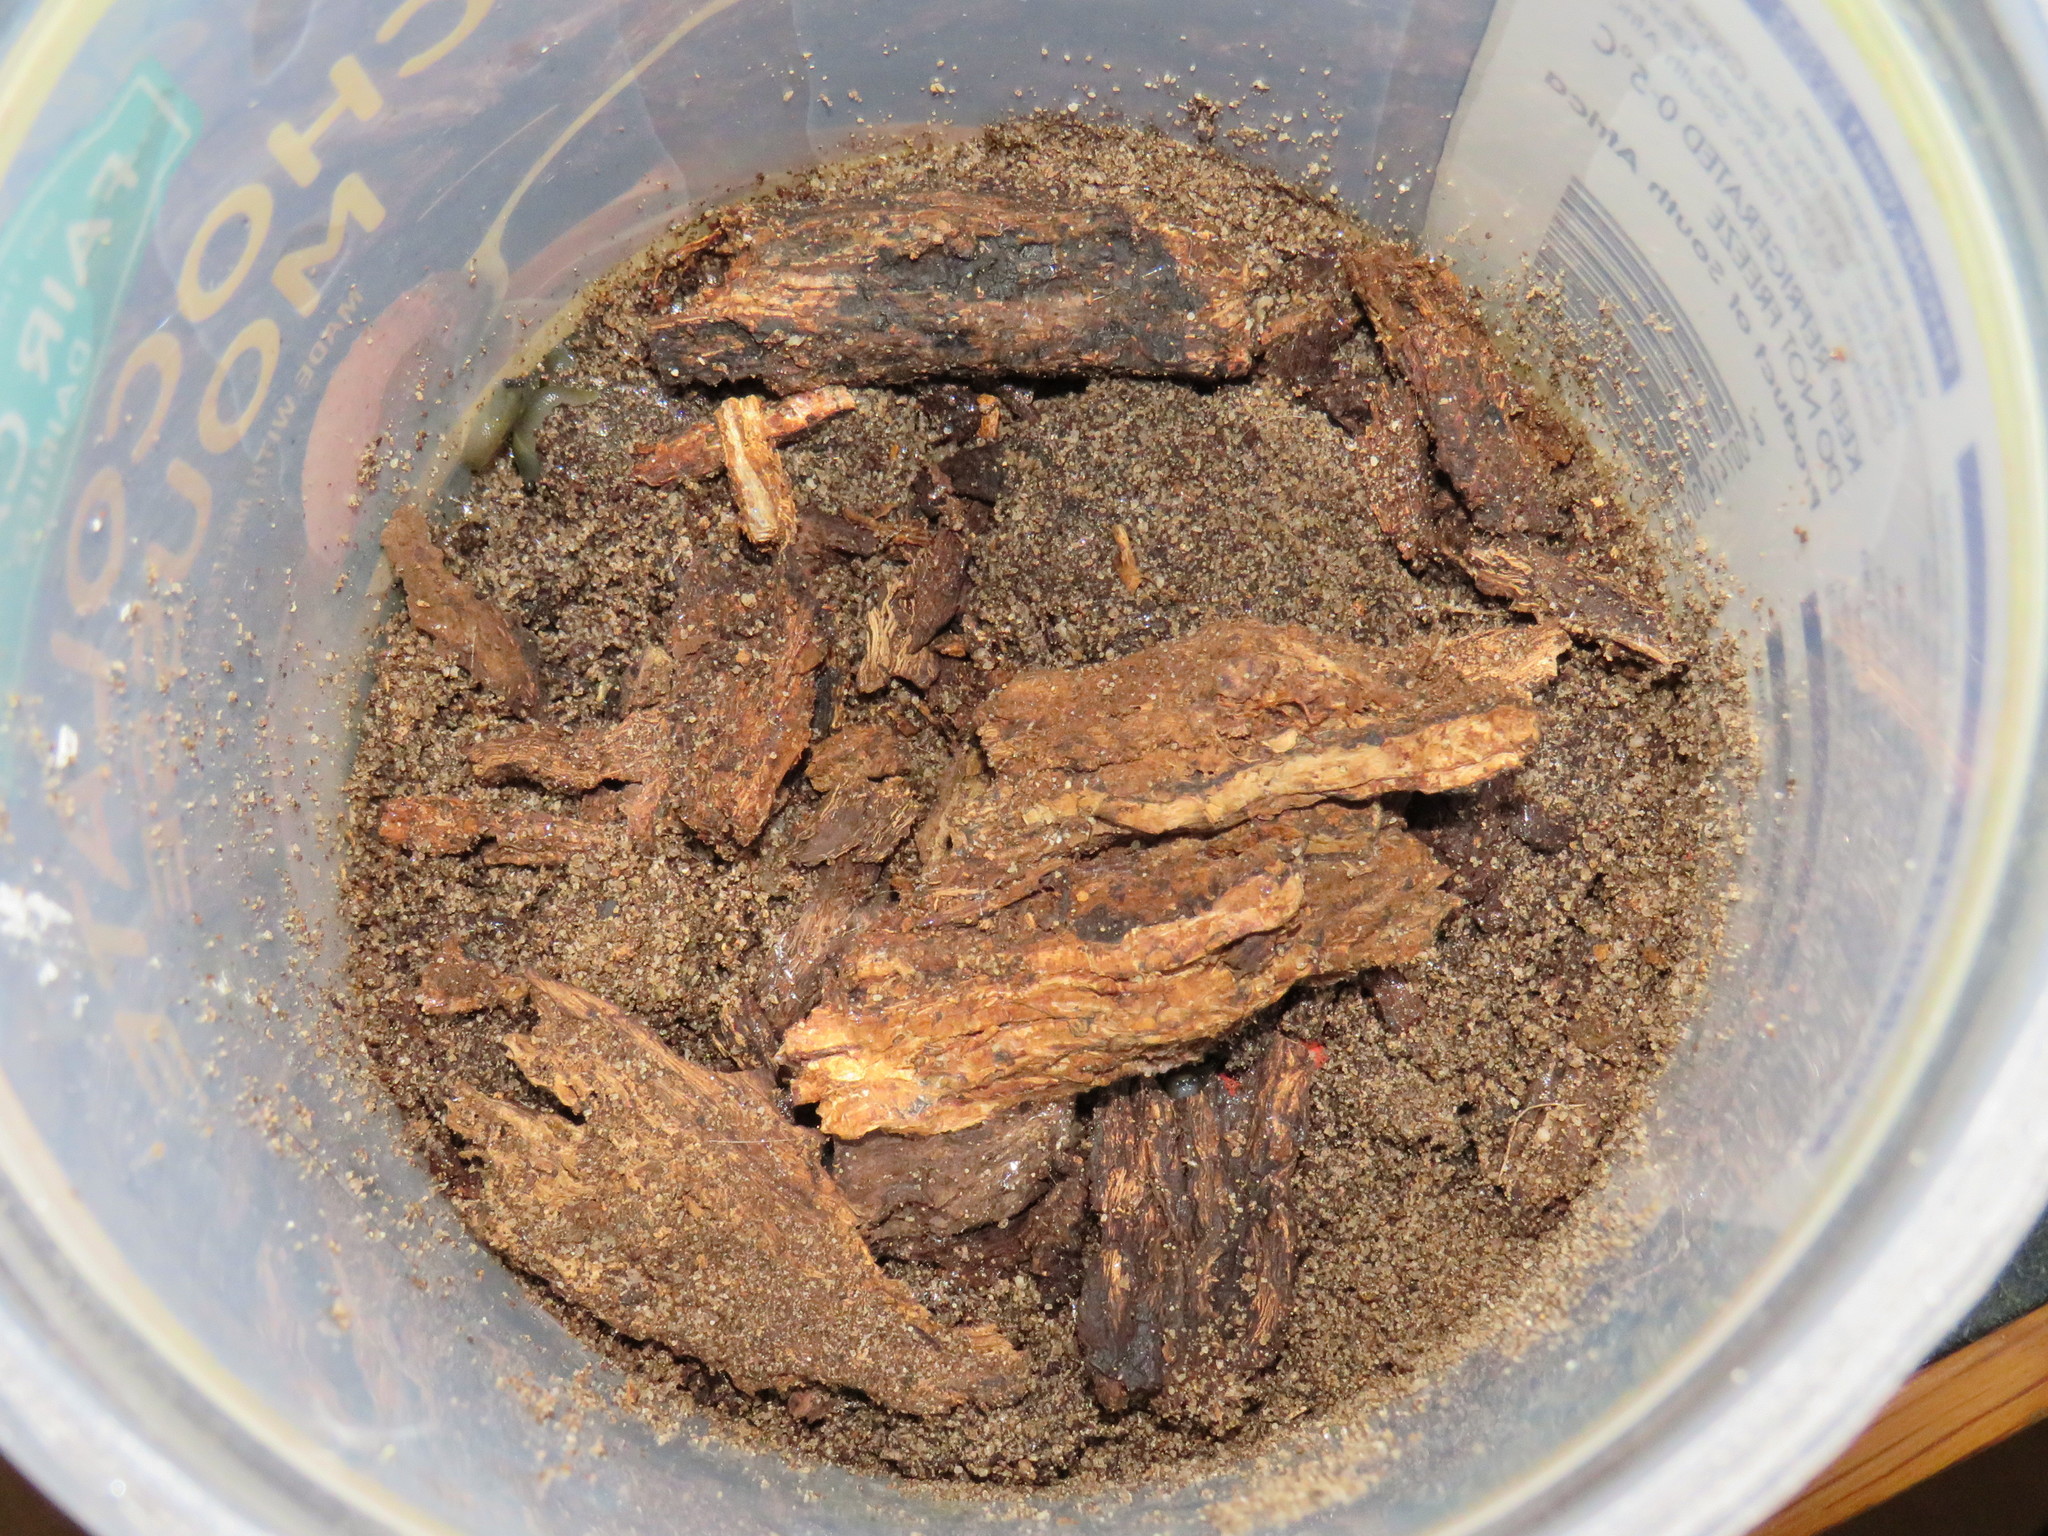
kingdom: Animalia
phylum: Mollusca
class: Gastropoda
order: Stylommatophora
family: Limacidae
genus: Limacus
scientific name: Limacus flavus
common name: Yellow gardenslug
